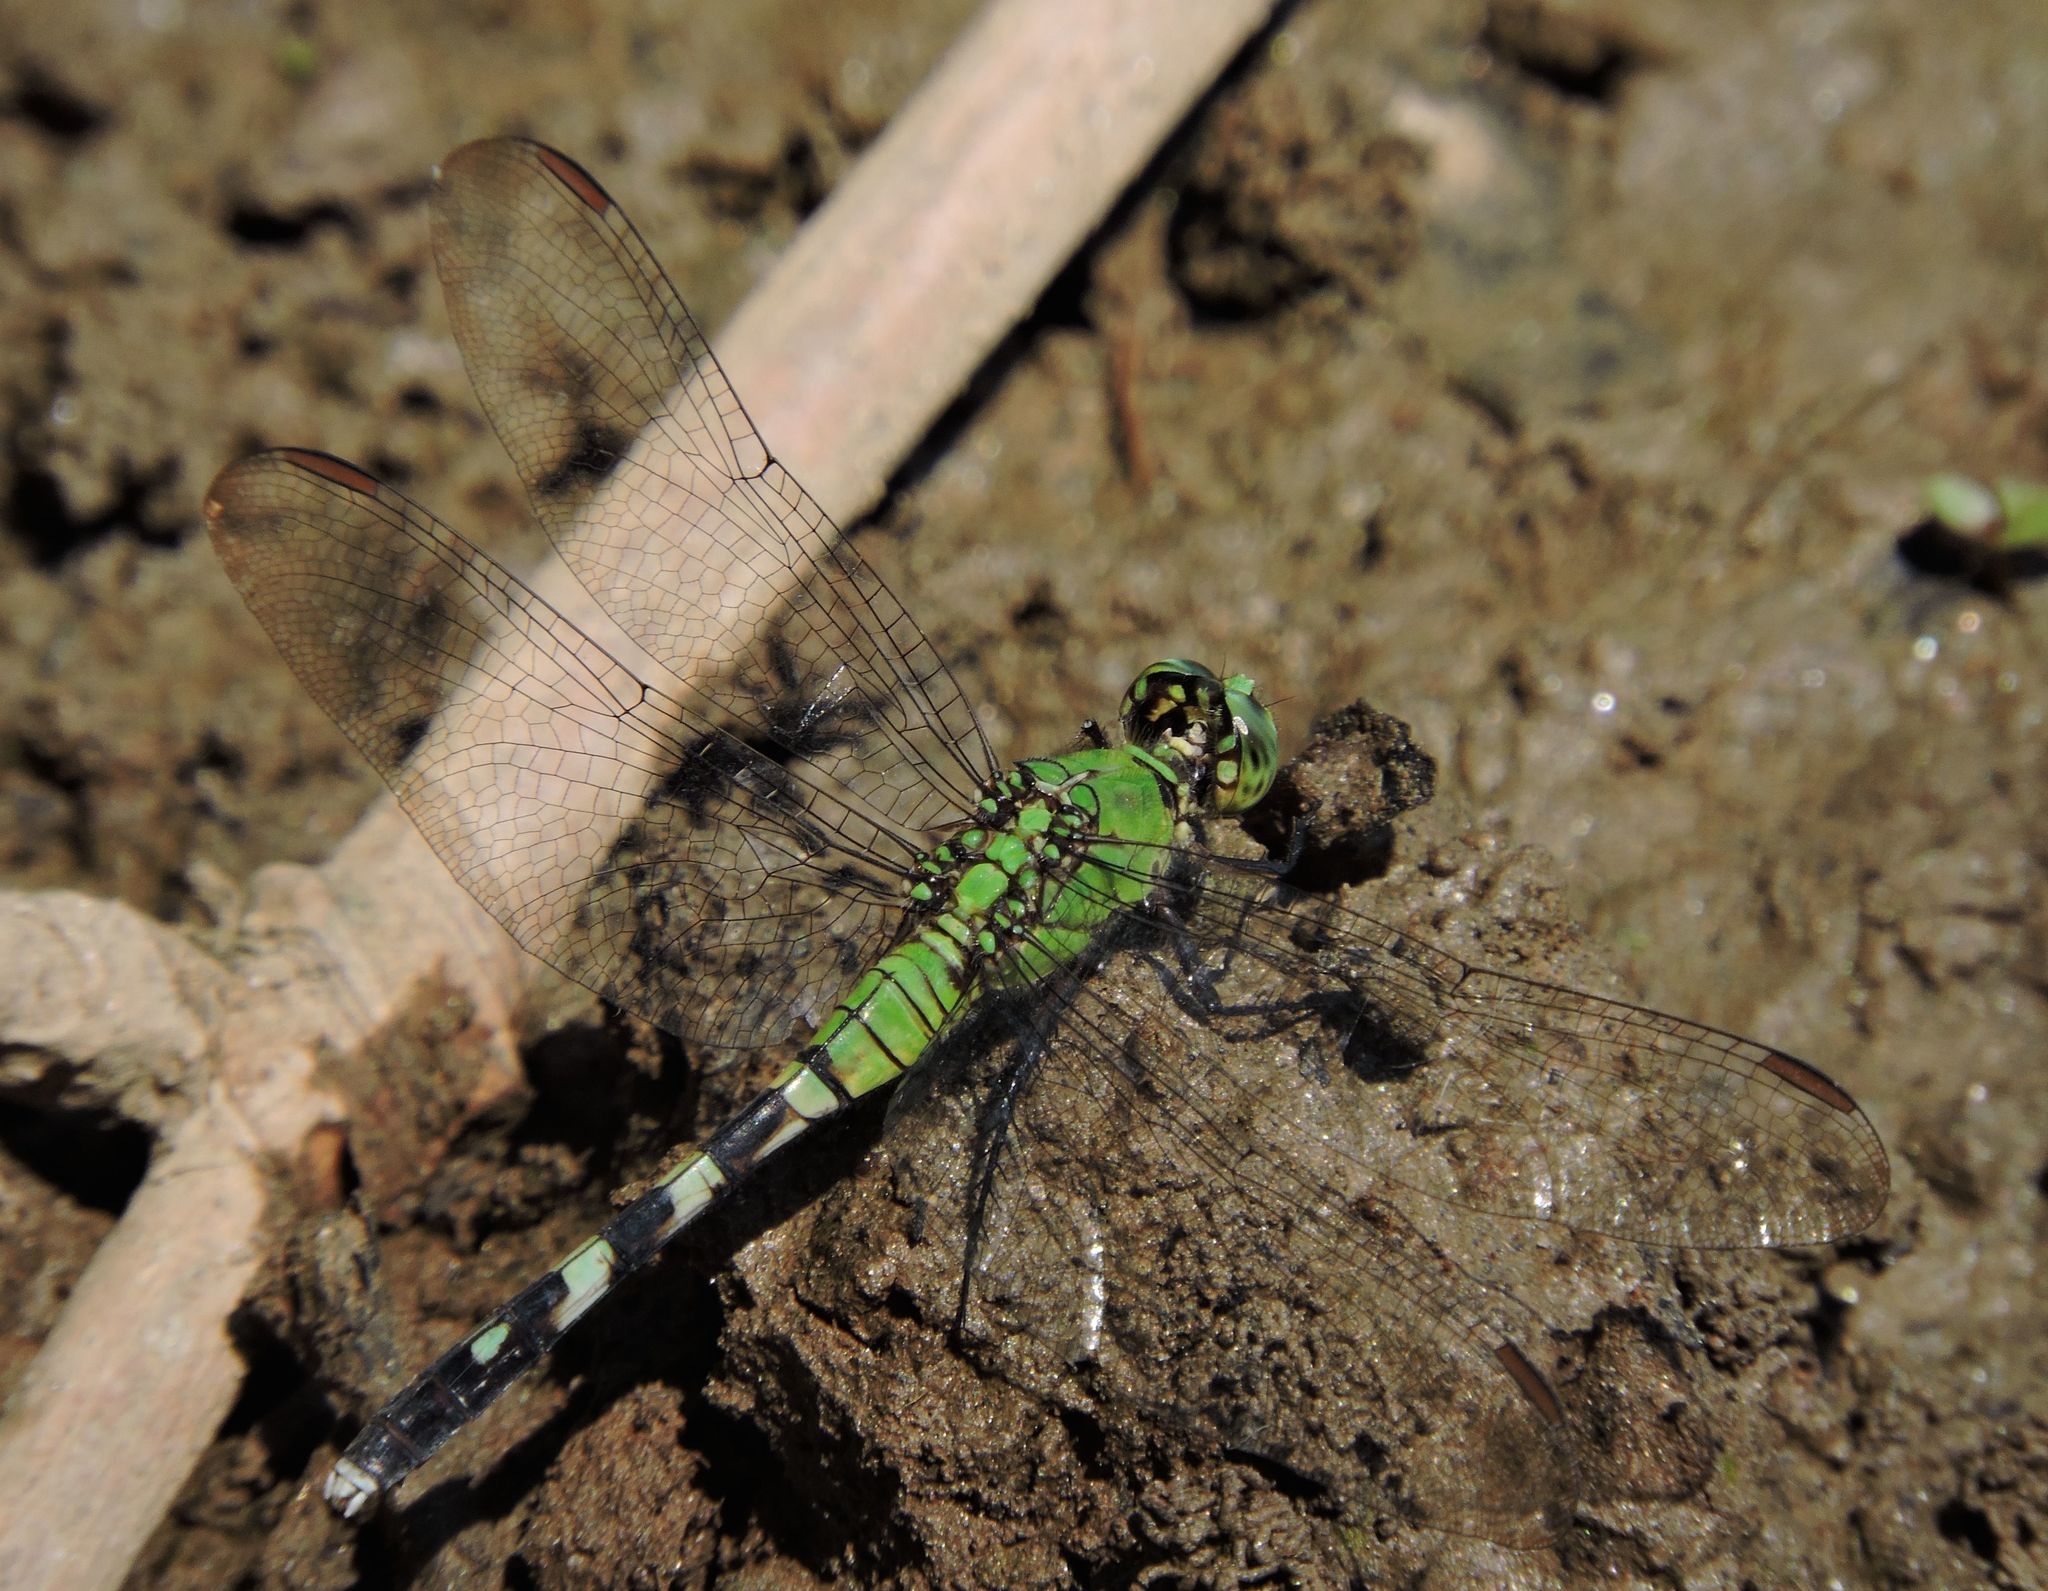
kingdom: Animalia
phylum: Arthropoda
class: Insecta
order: Odonata
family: Libellulidae
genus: Erythemis
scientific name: Erythemis simplicicollis
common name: Eastern pondhawk
